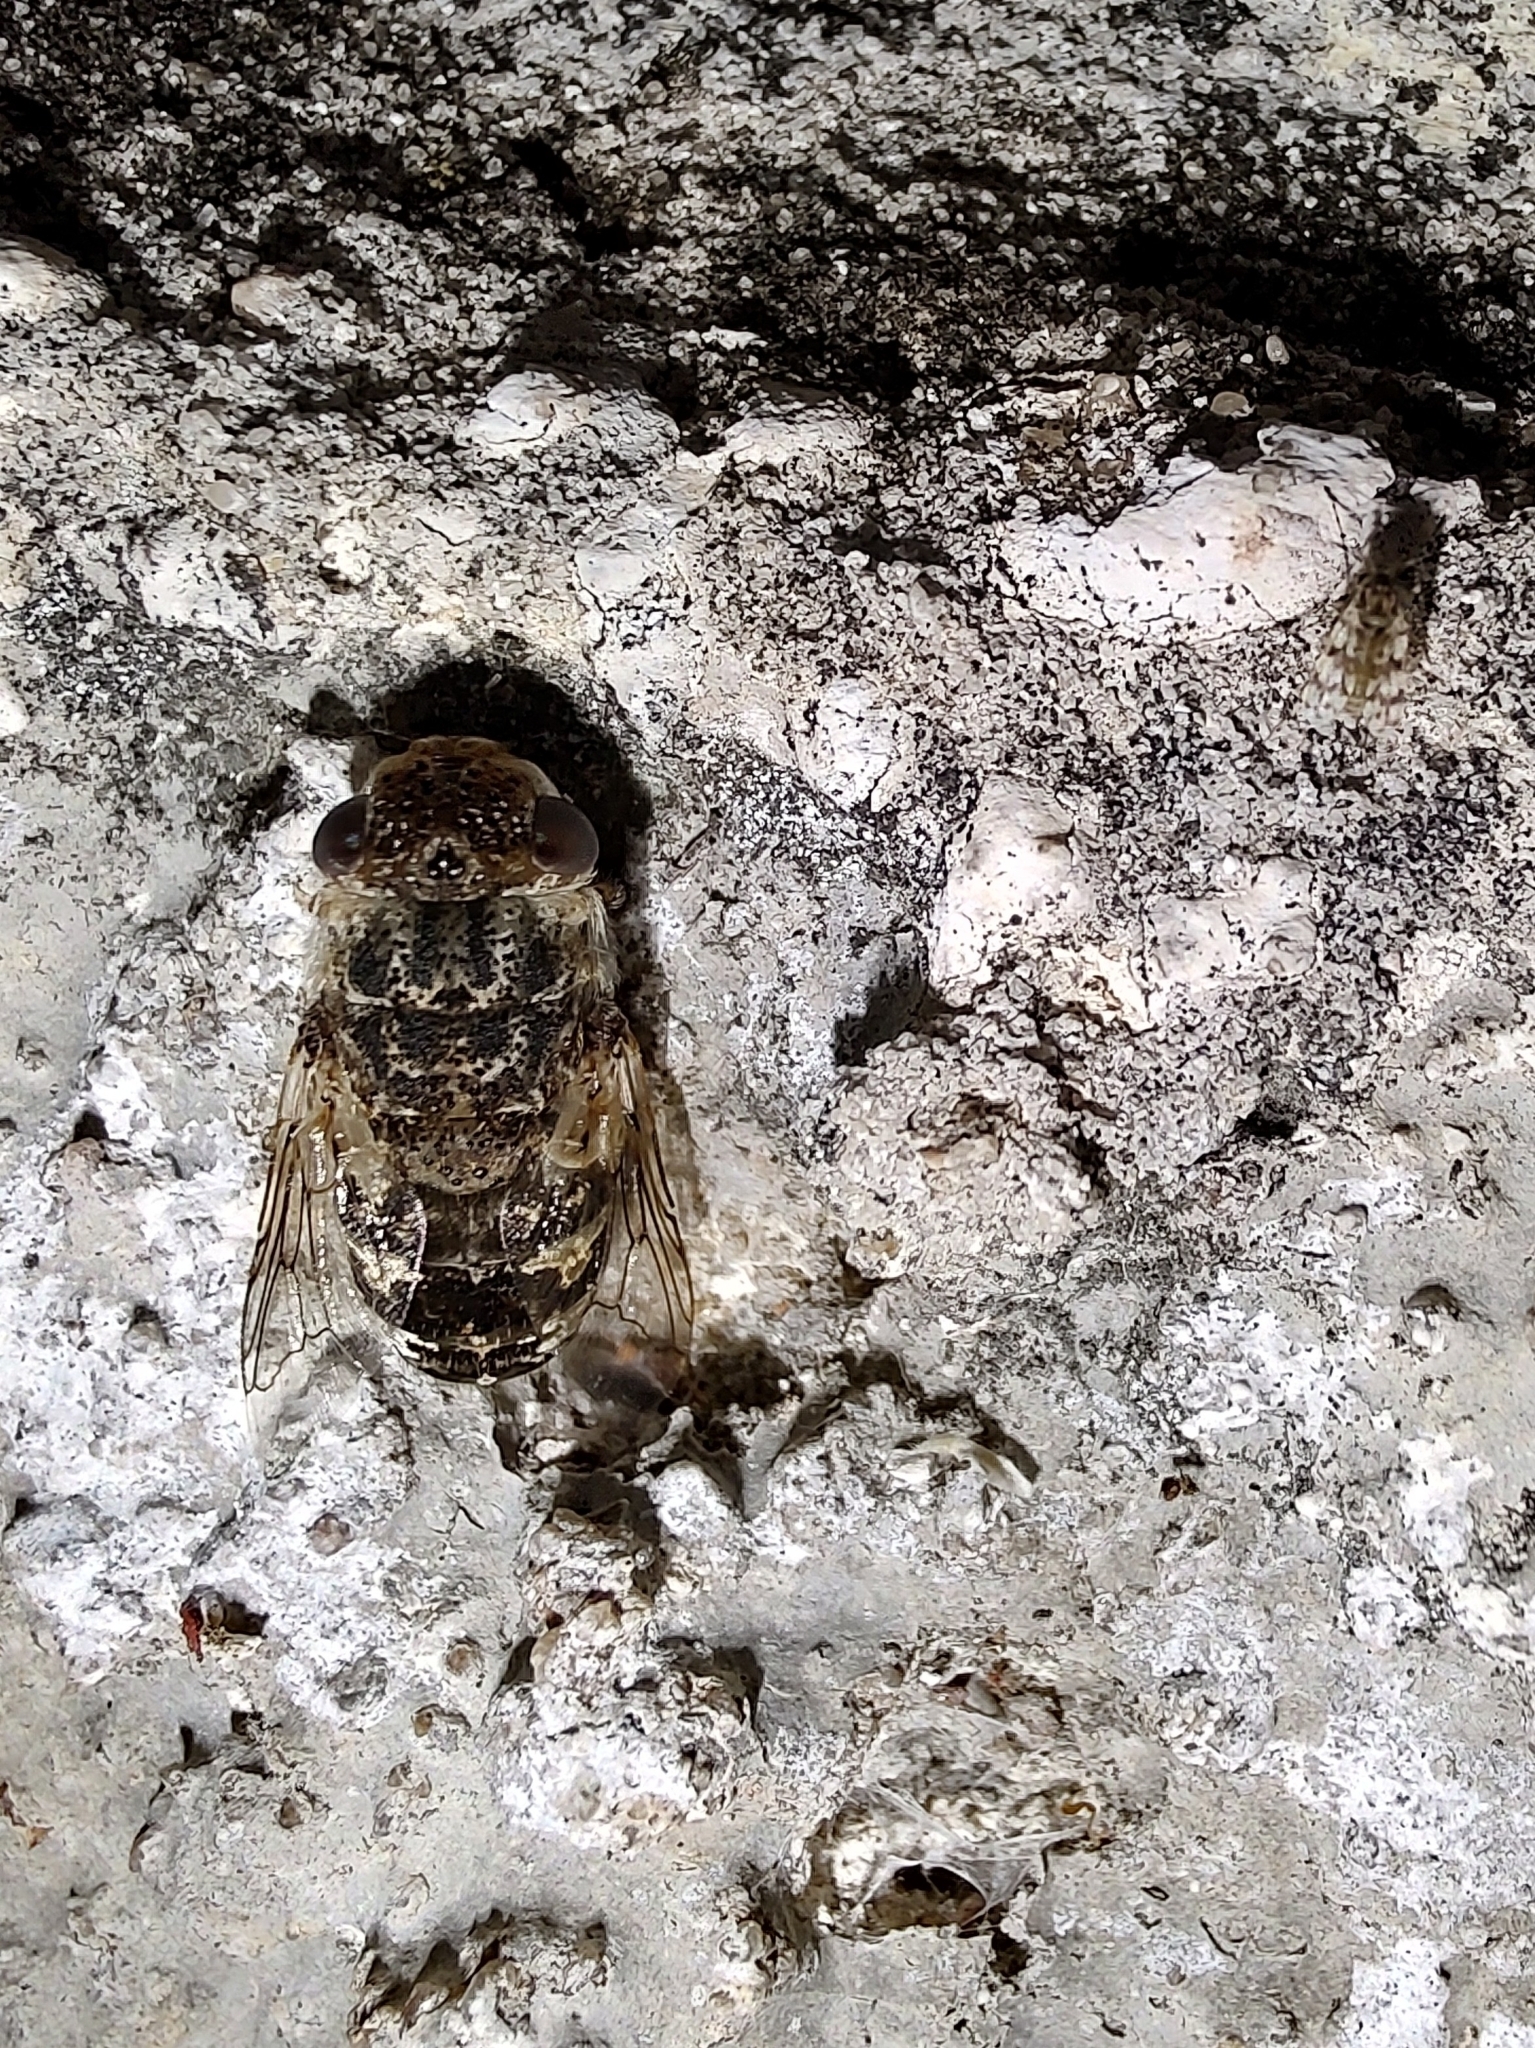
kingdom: Animalia
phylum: Arthropoda
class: Insecta
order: Diptera
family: Oestridae
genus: Oestrus
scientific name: Oestrus ovis
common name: Sheep botfly
